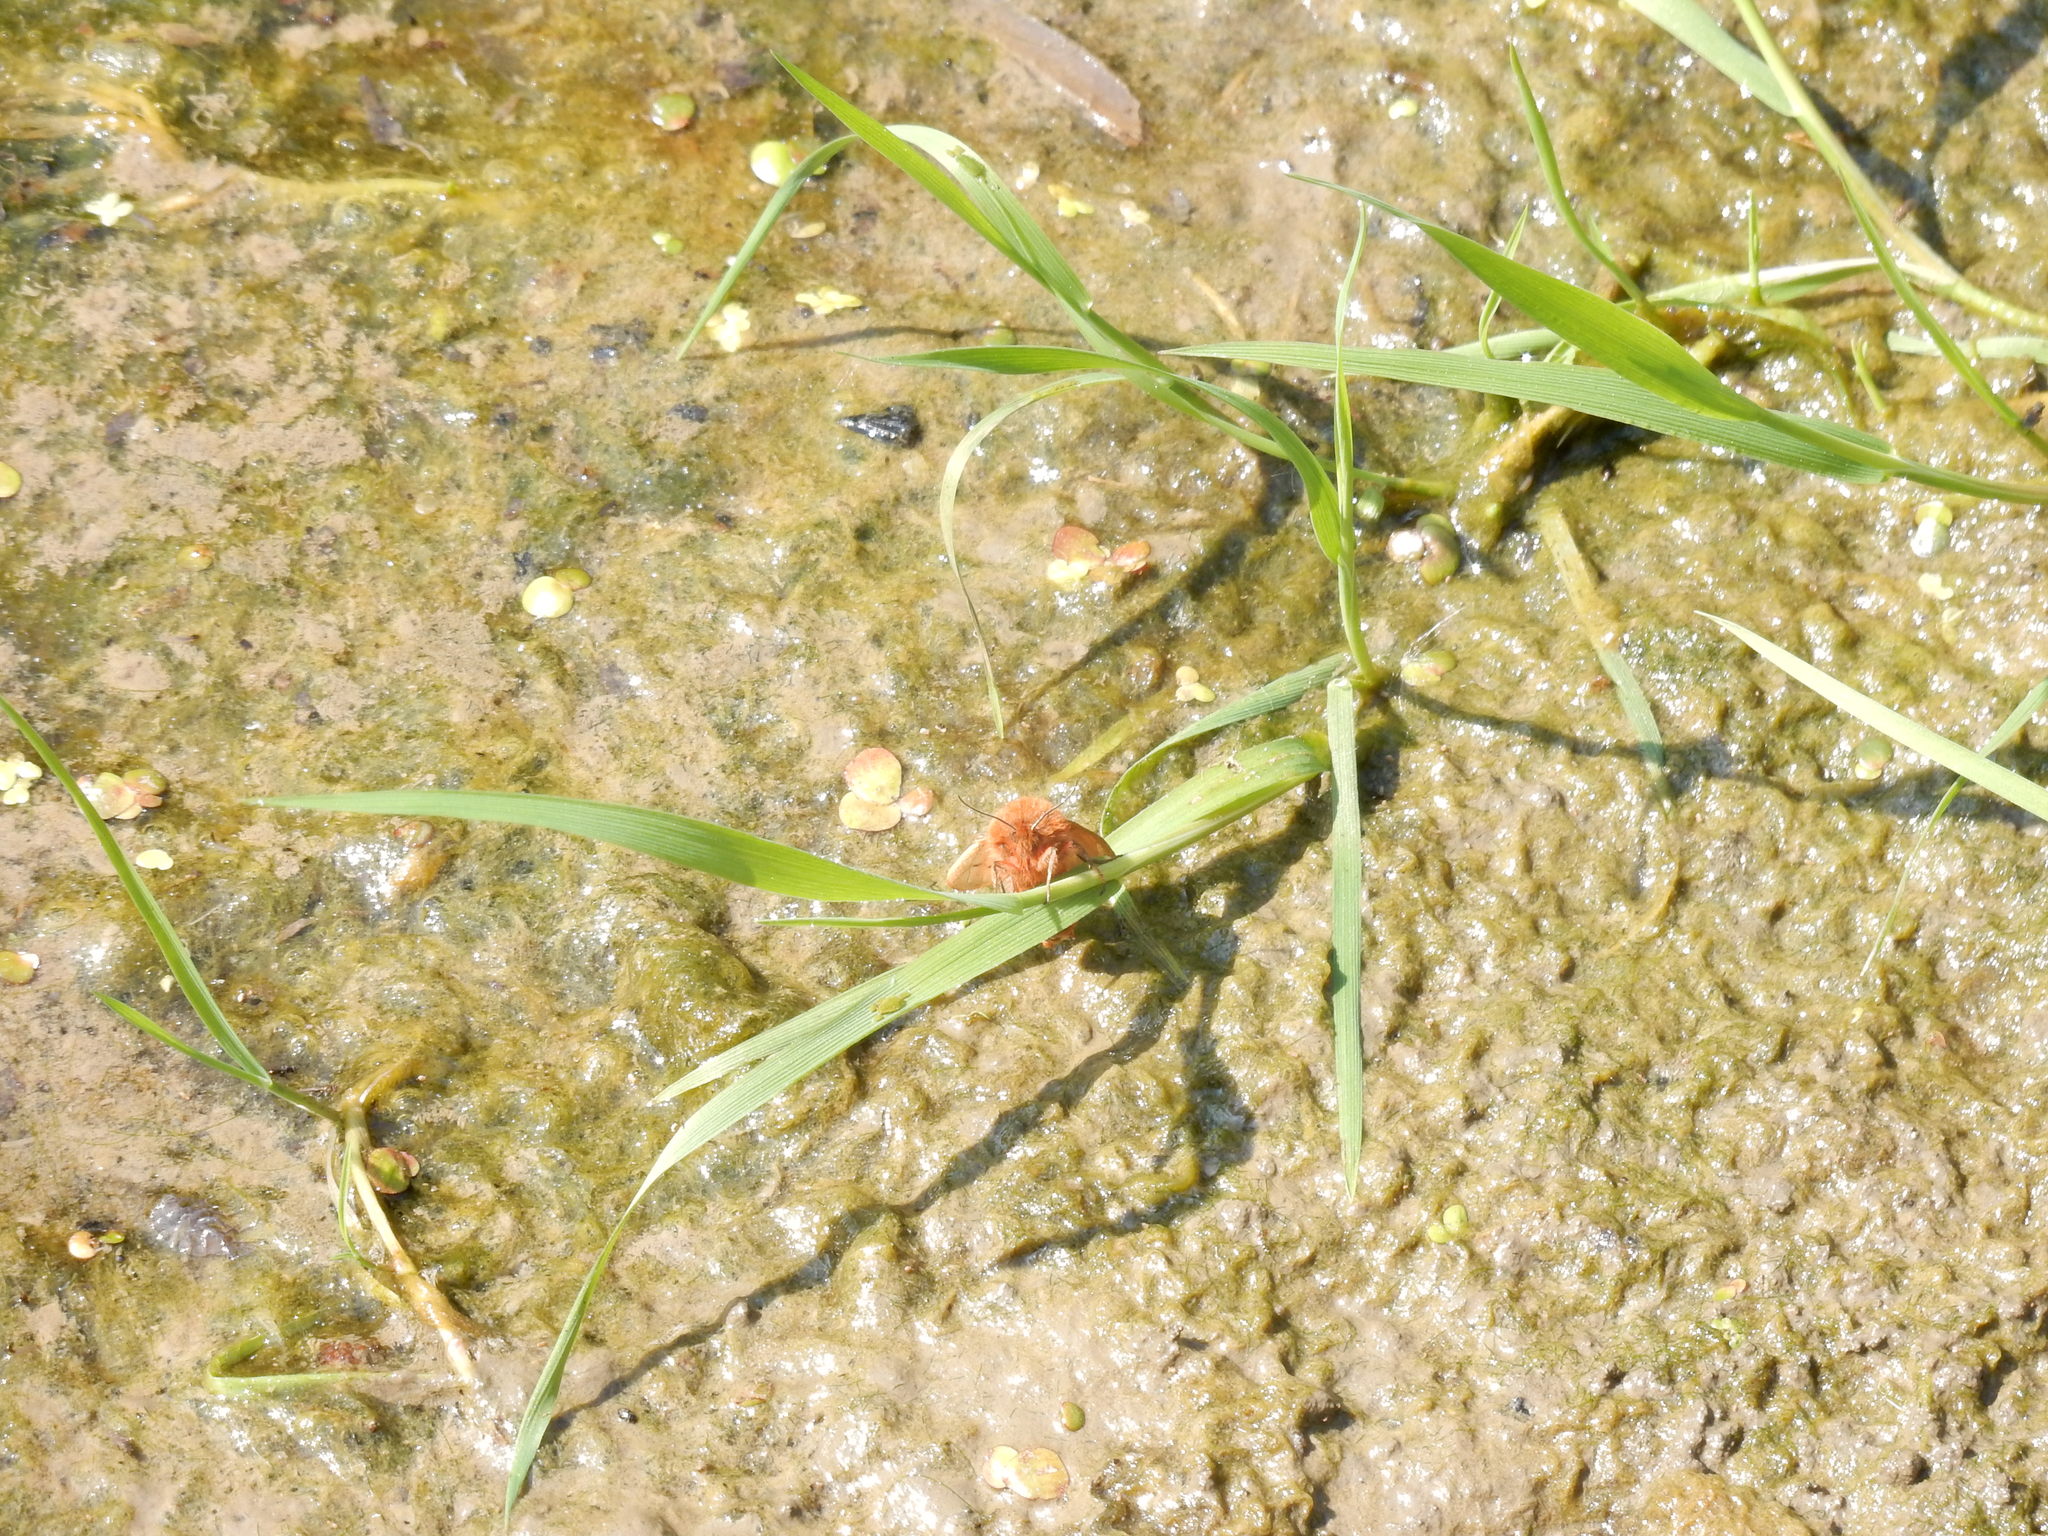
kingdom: Animalia
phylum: Arthropoda
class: Insecta
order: Lepidoptera
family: Erebidae
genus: Phragmatobia
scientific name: Phragmatobia fuliginosa
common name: Ruby tiger
